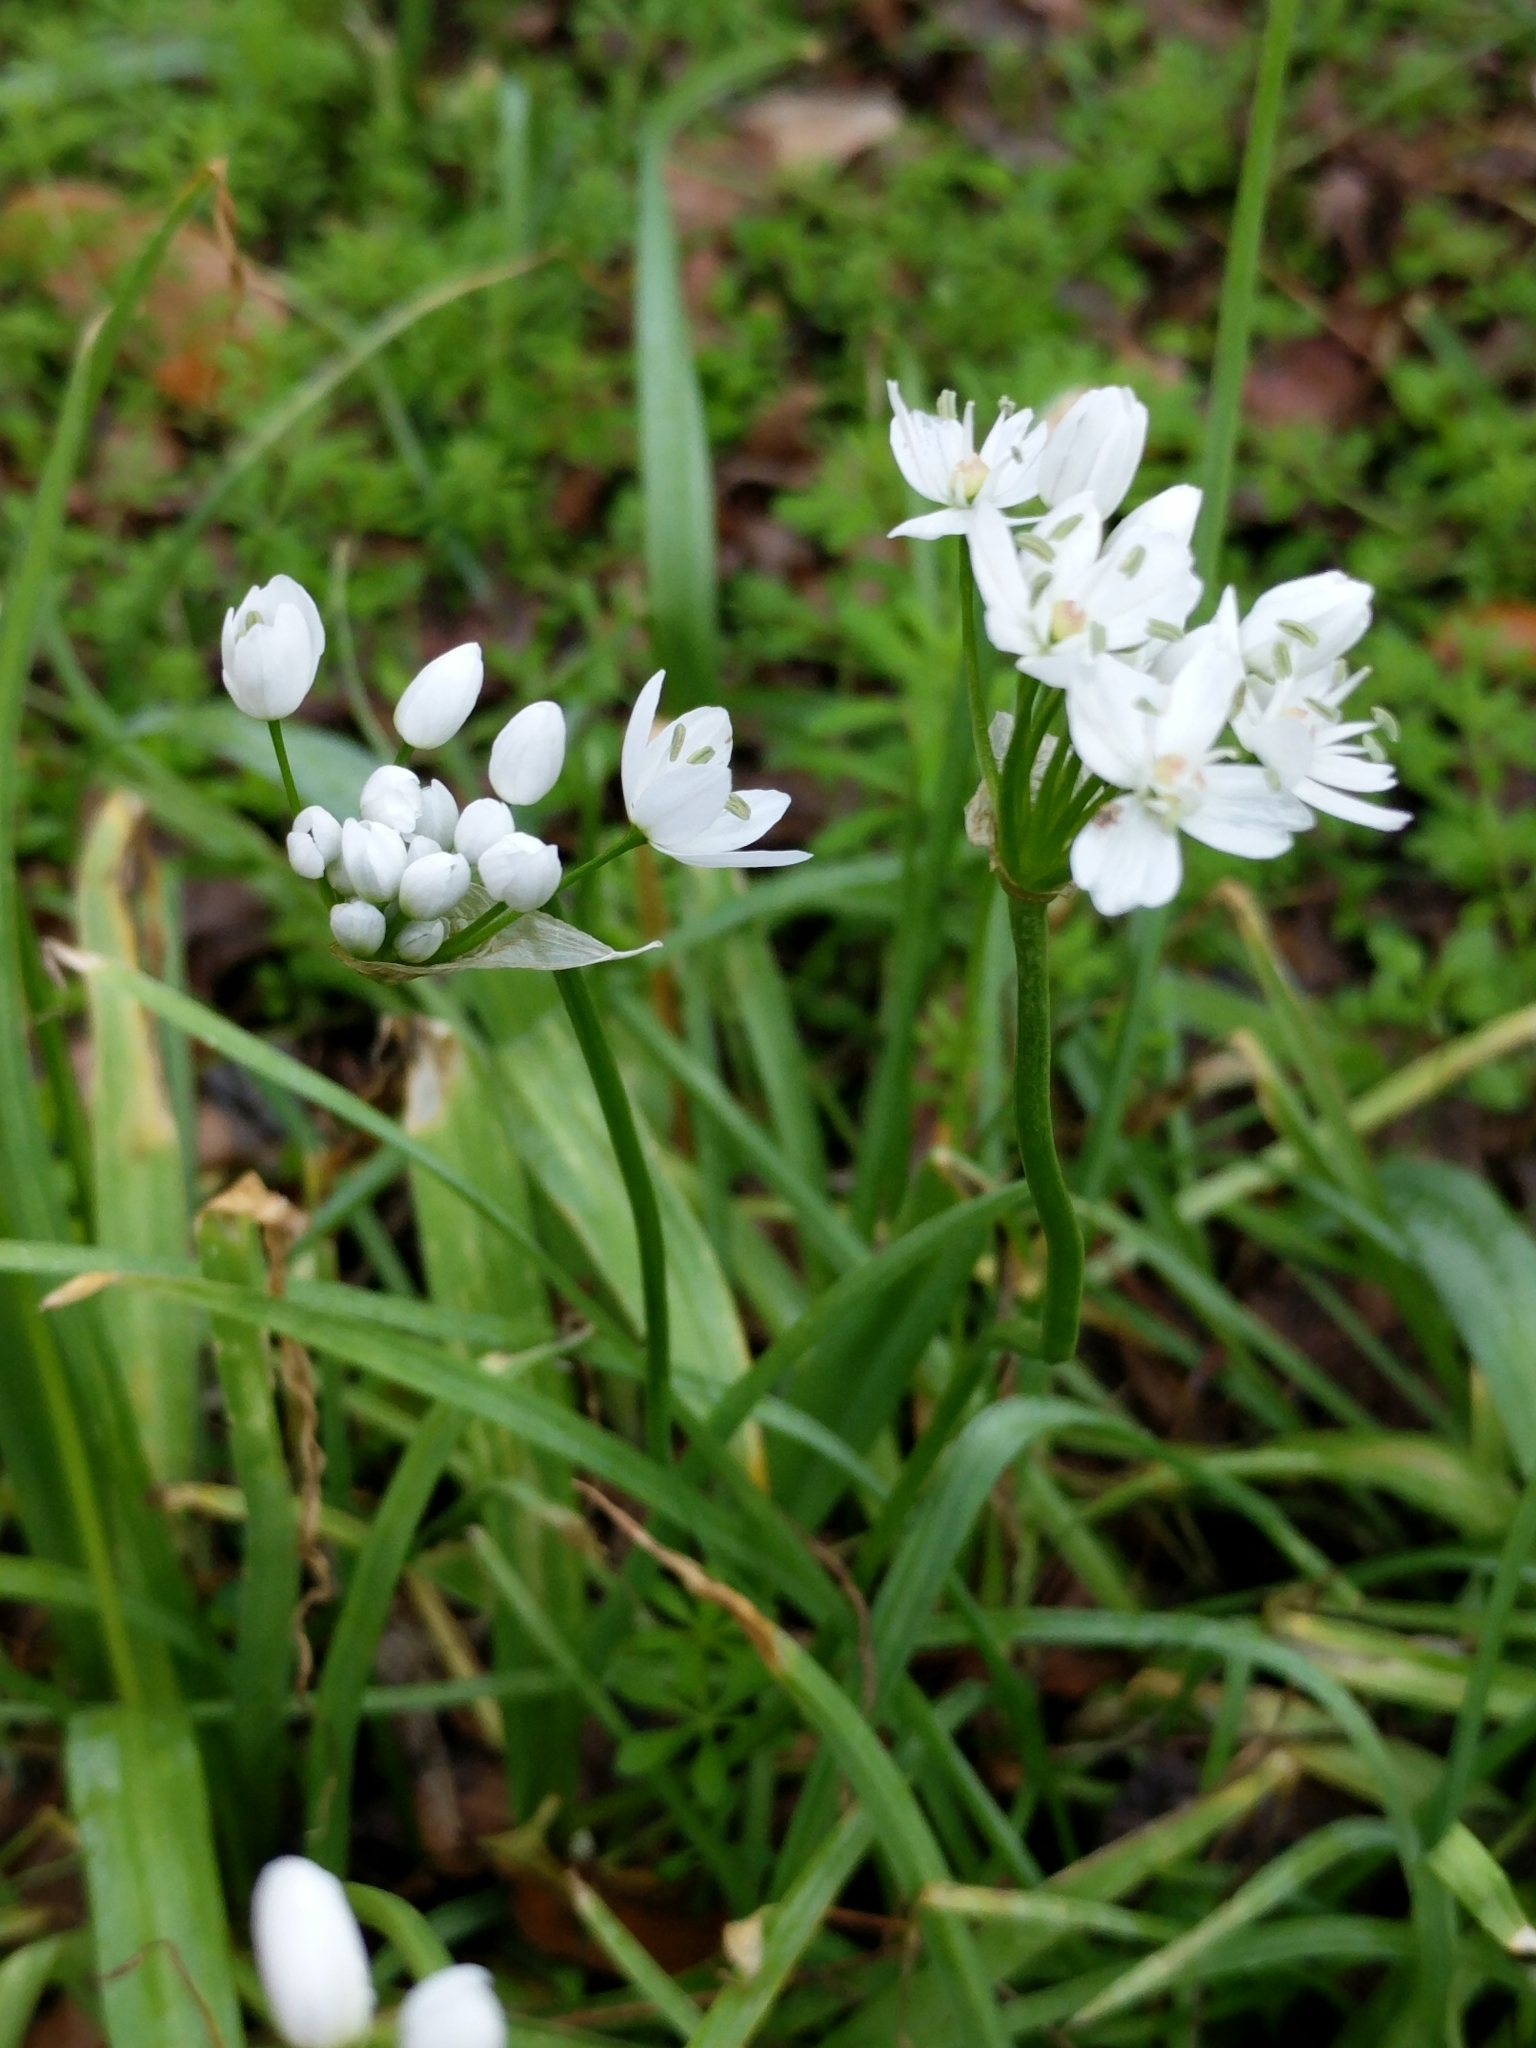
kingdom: Plantae
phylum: Tracheophyta
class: Liliopsida
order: Asparagales
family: Amaryllidaceae
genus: Allium
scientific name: Allium neapolitanum
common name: Neapolitan garlic
